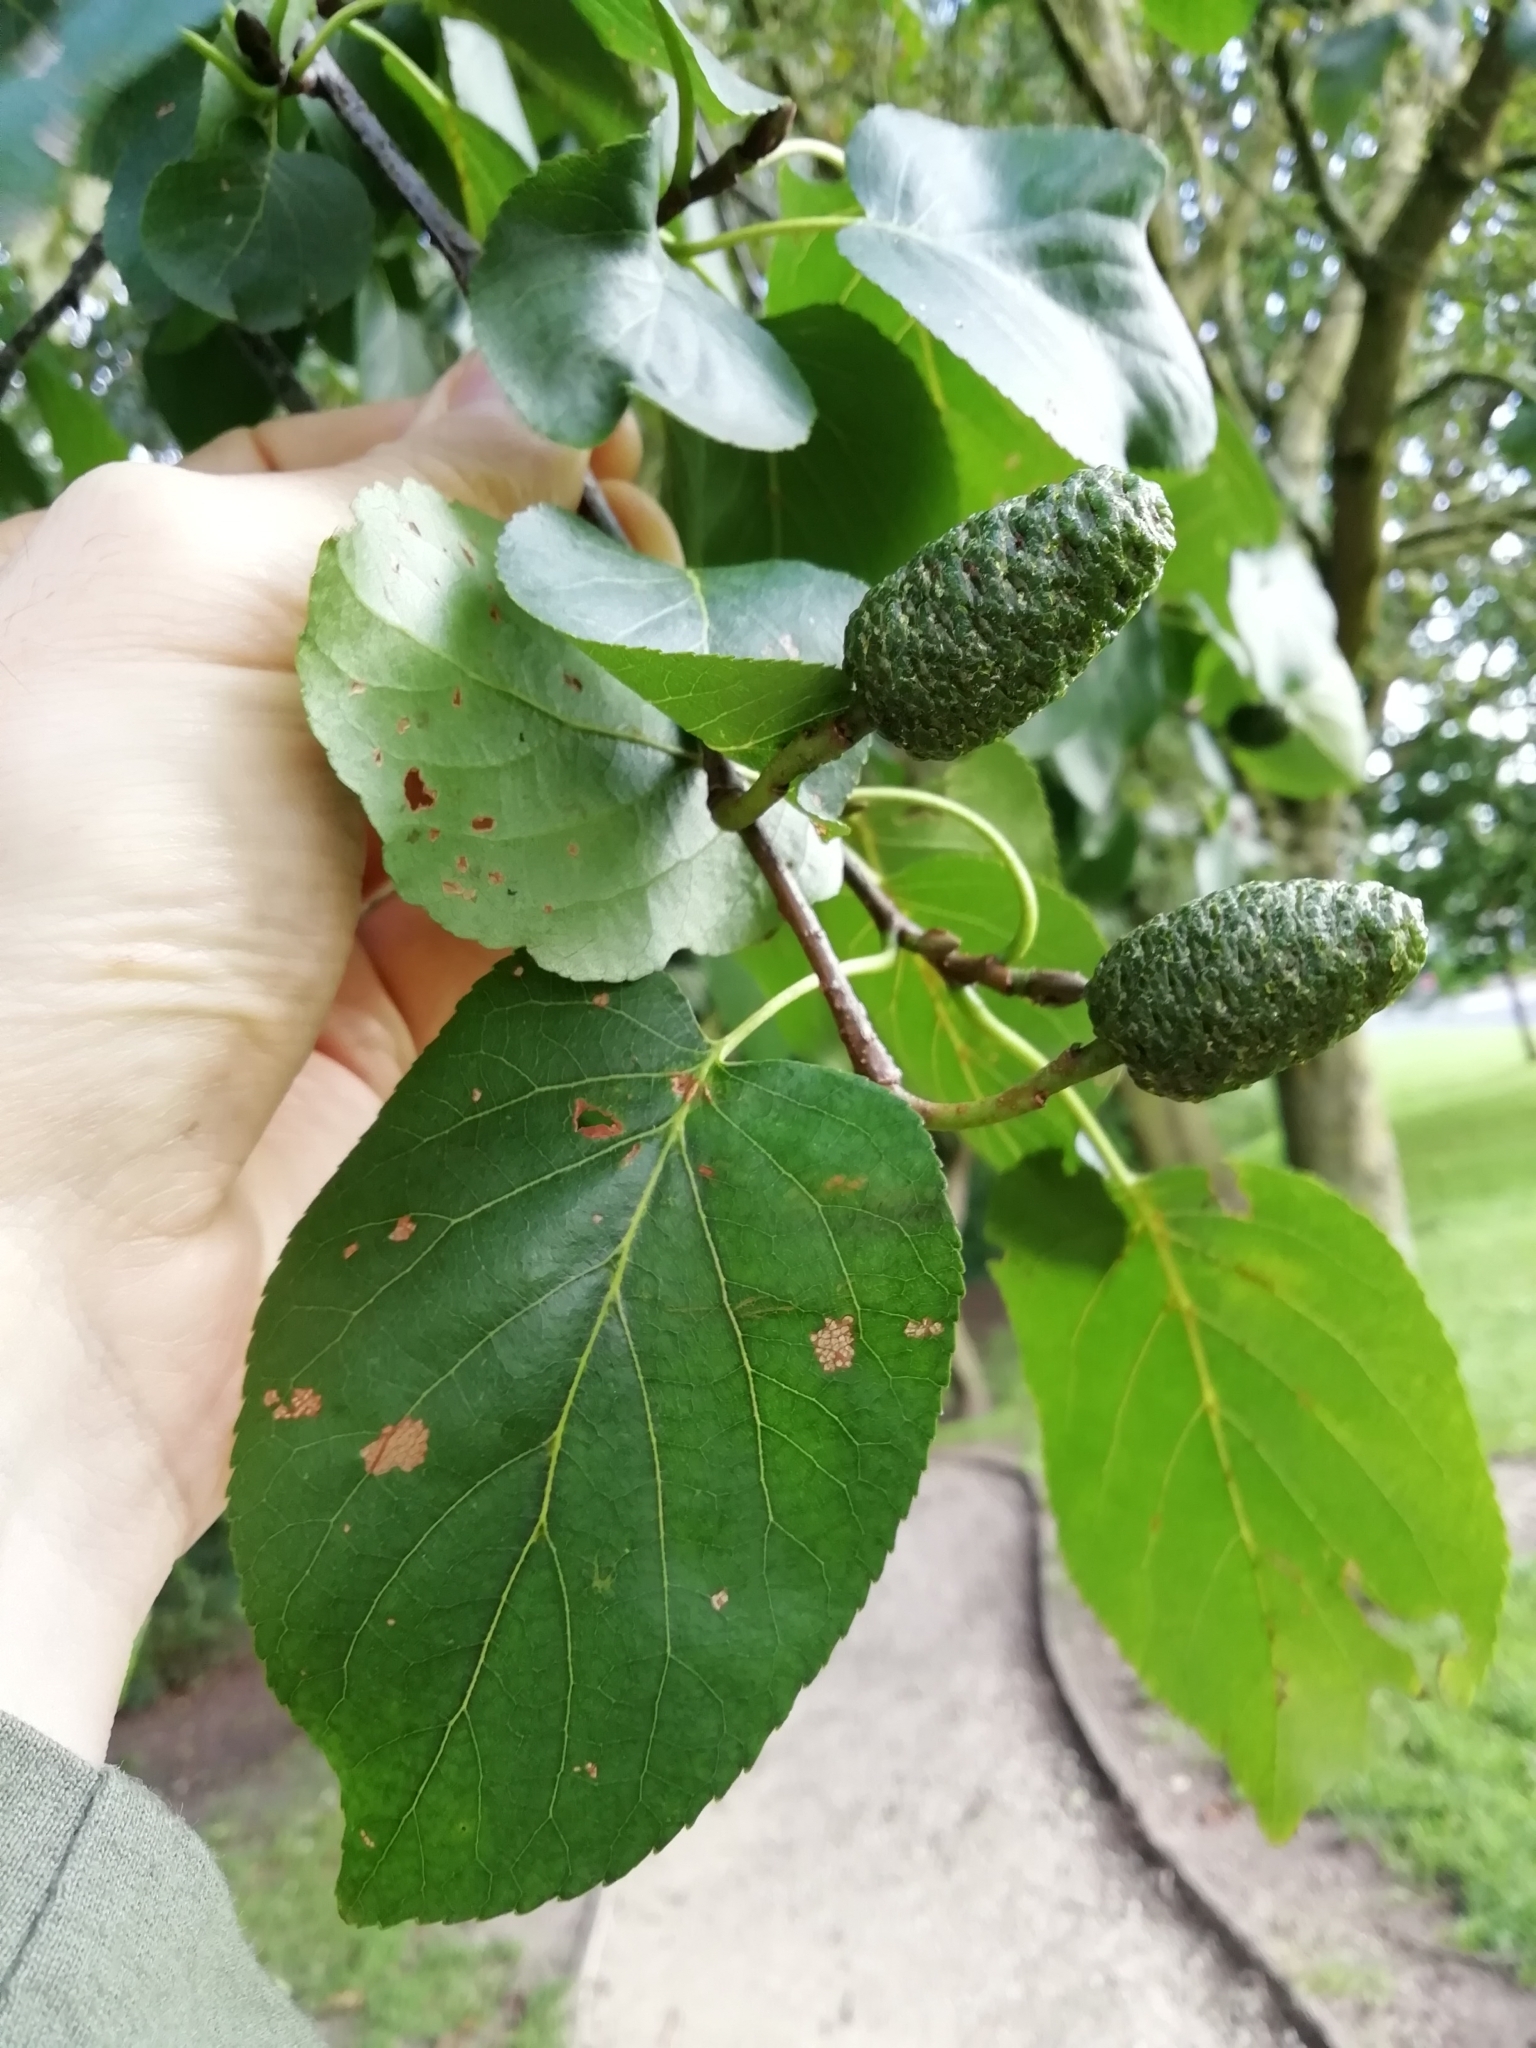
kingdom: Plantae
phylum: Tracheophyta
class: Magnoliopsida
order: Fagales
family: Betulaceae
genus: Alnus
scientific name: Alnus cordata
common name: Italian alder
